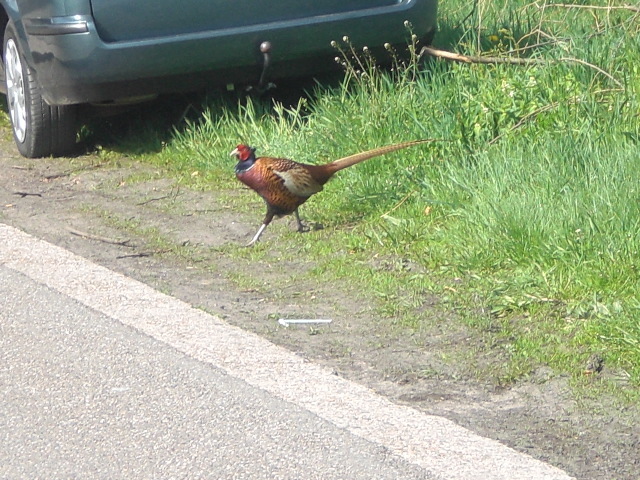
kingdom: Animalia
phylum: Chordata
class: Aves
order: Galliformes
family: Phasianidae
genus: Phasianus
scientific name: Phasianus colchicus
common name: Common pheasant
